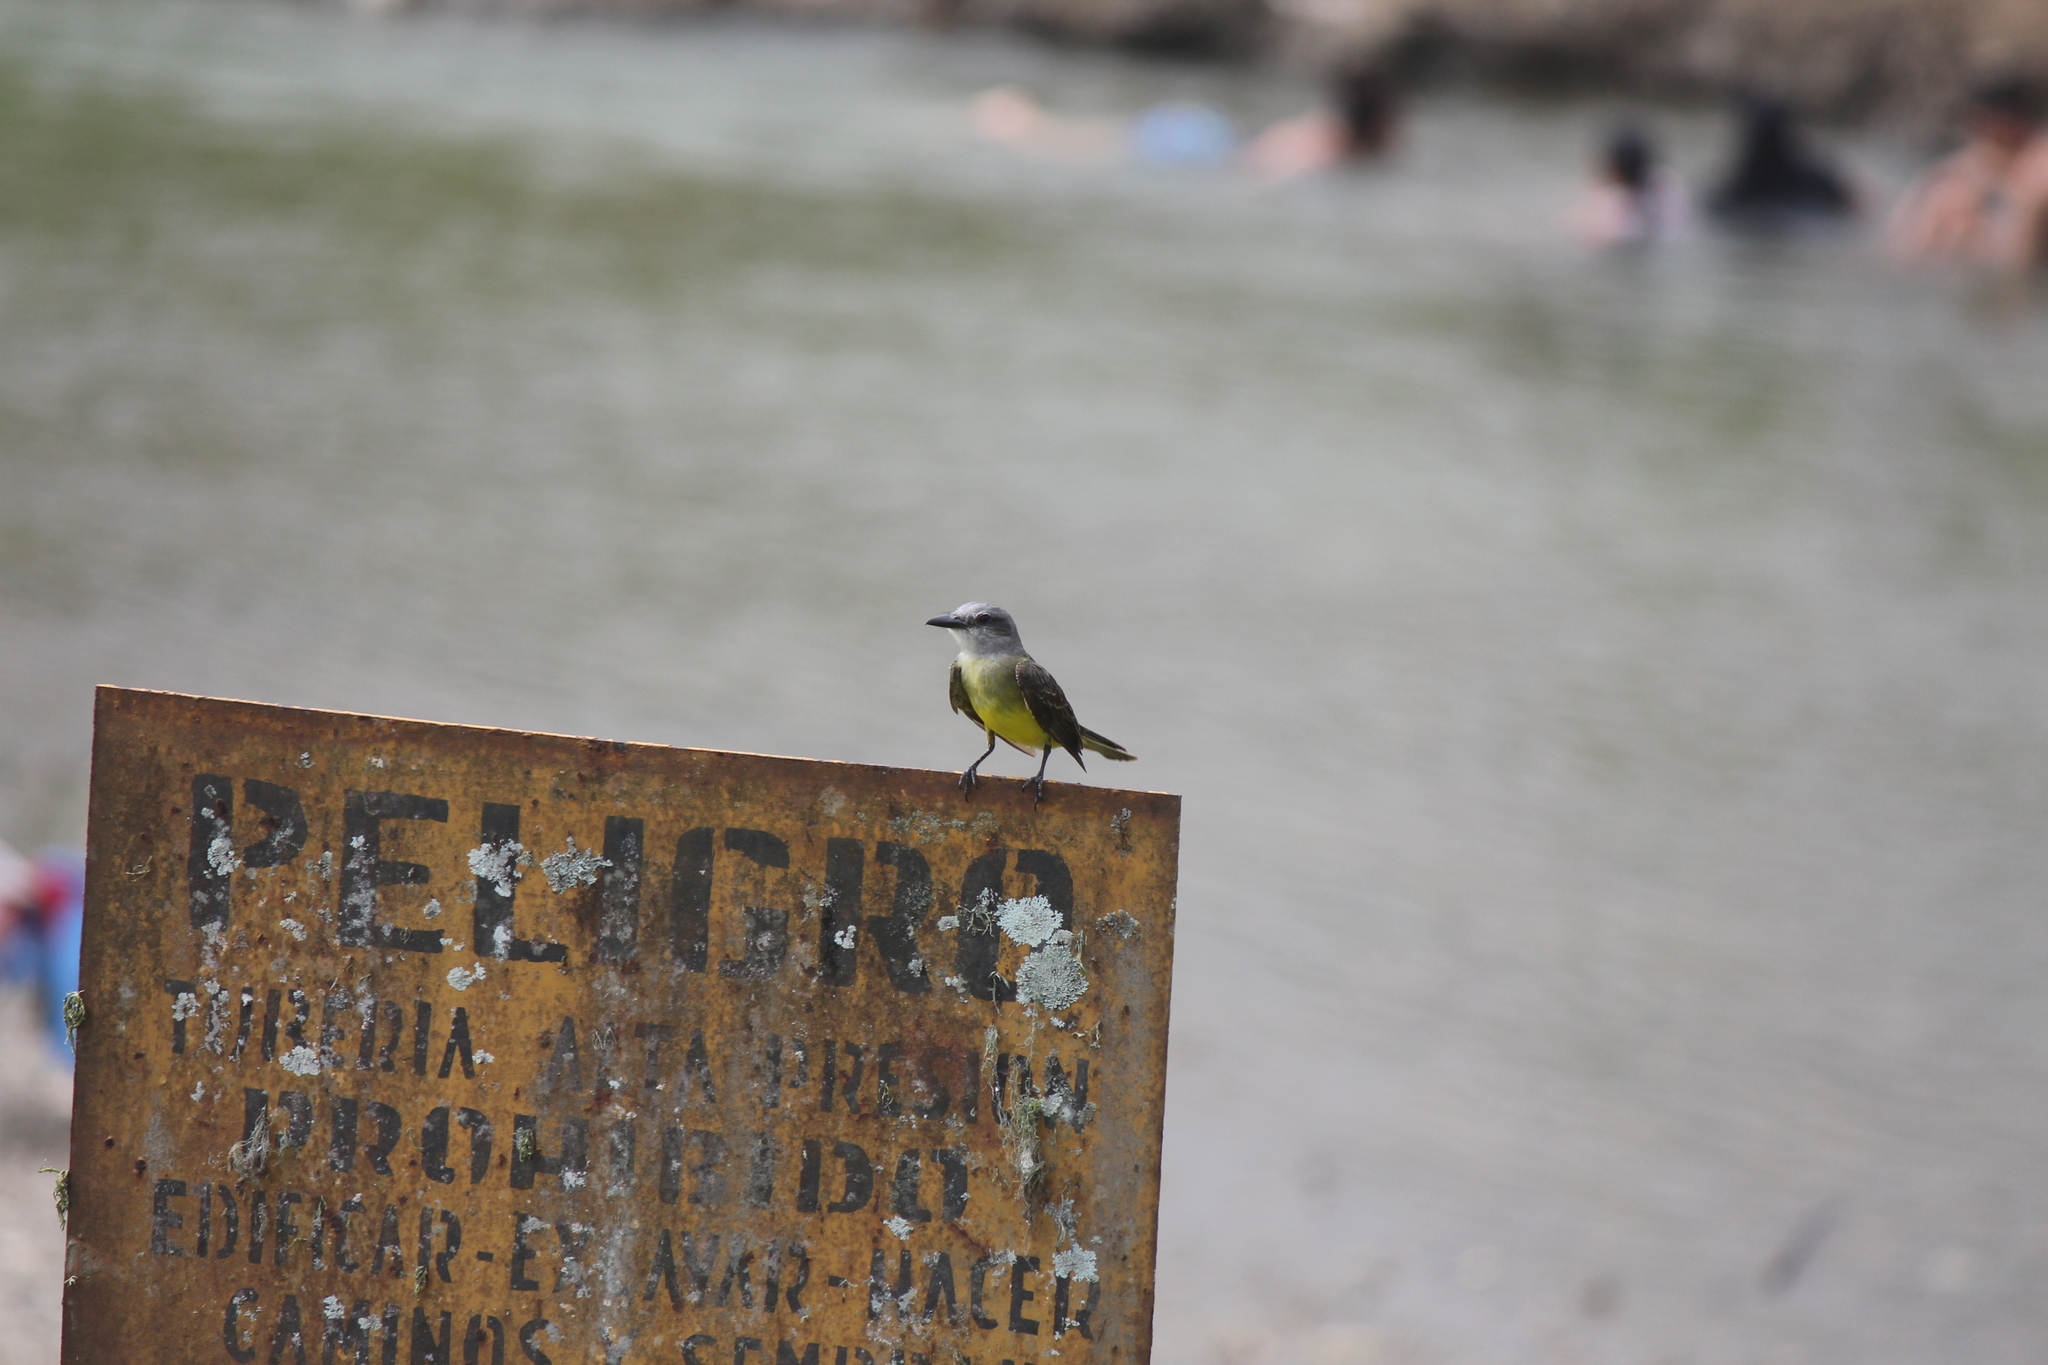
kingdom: Animalia
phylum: Chordata
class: Aves
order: Passeriformes
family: Tyrannidae
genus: Tyrannus
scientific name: Tyrannus melancholicus
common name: Tropical kingbird
